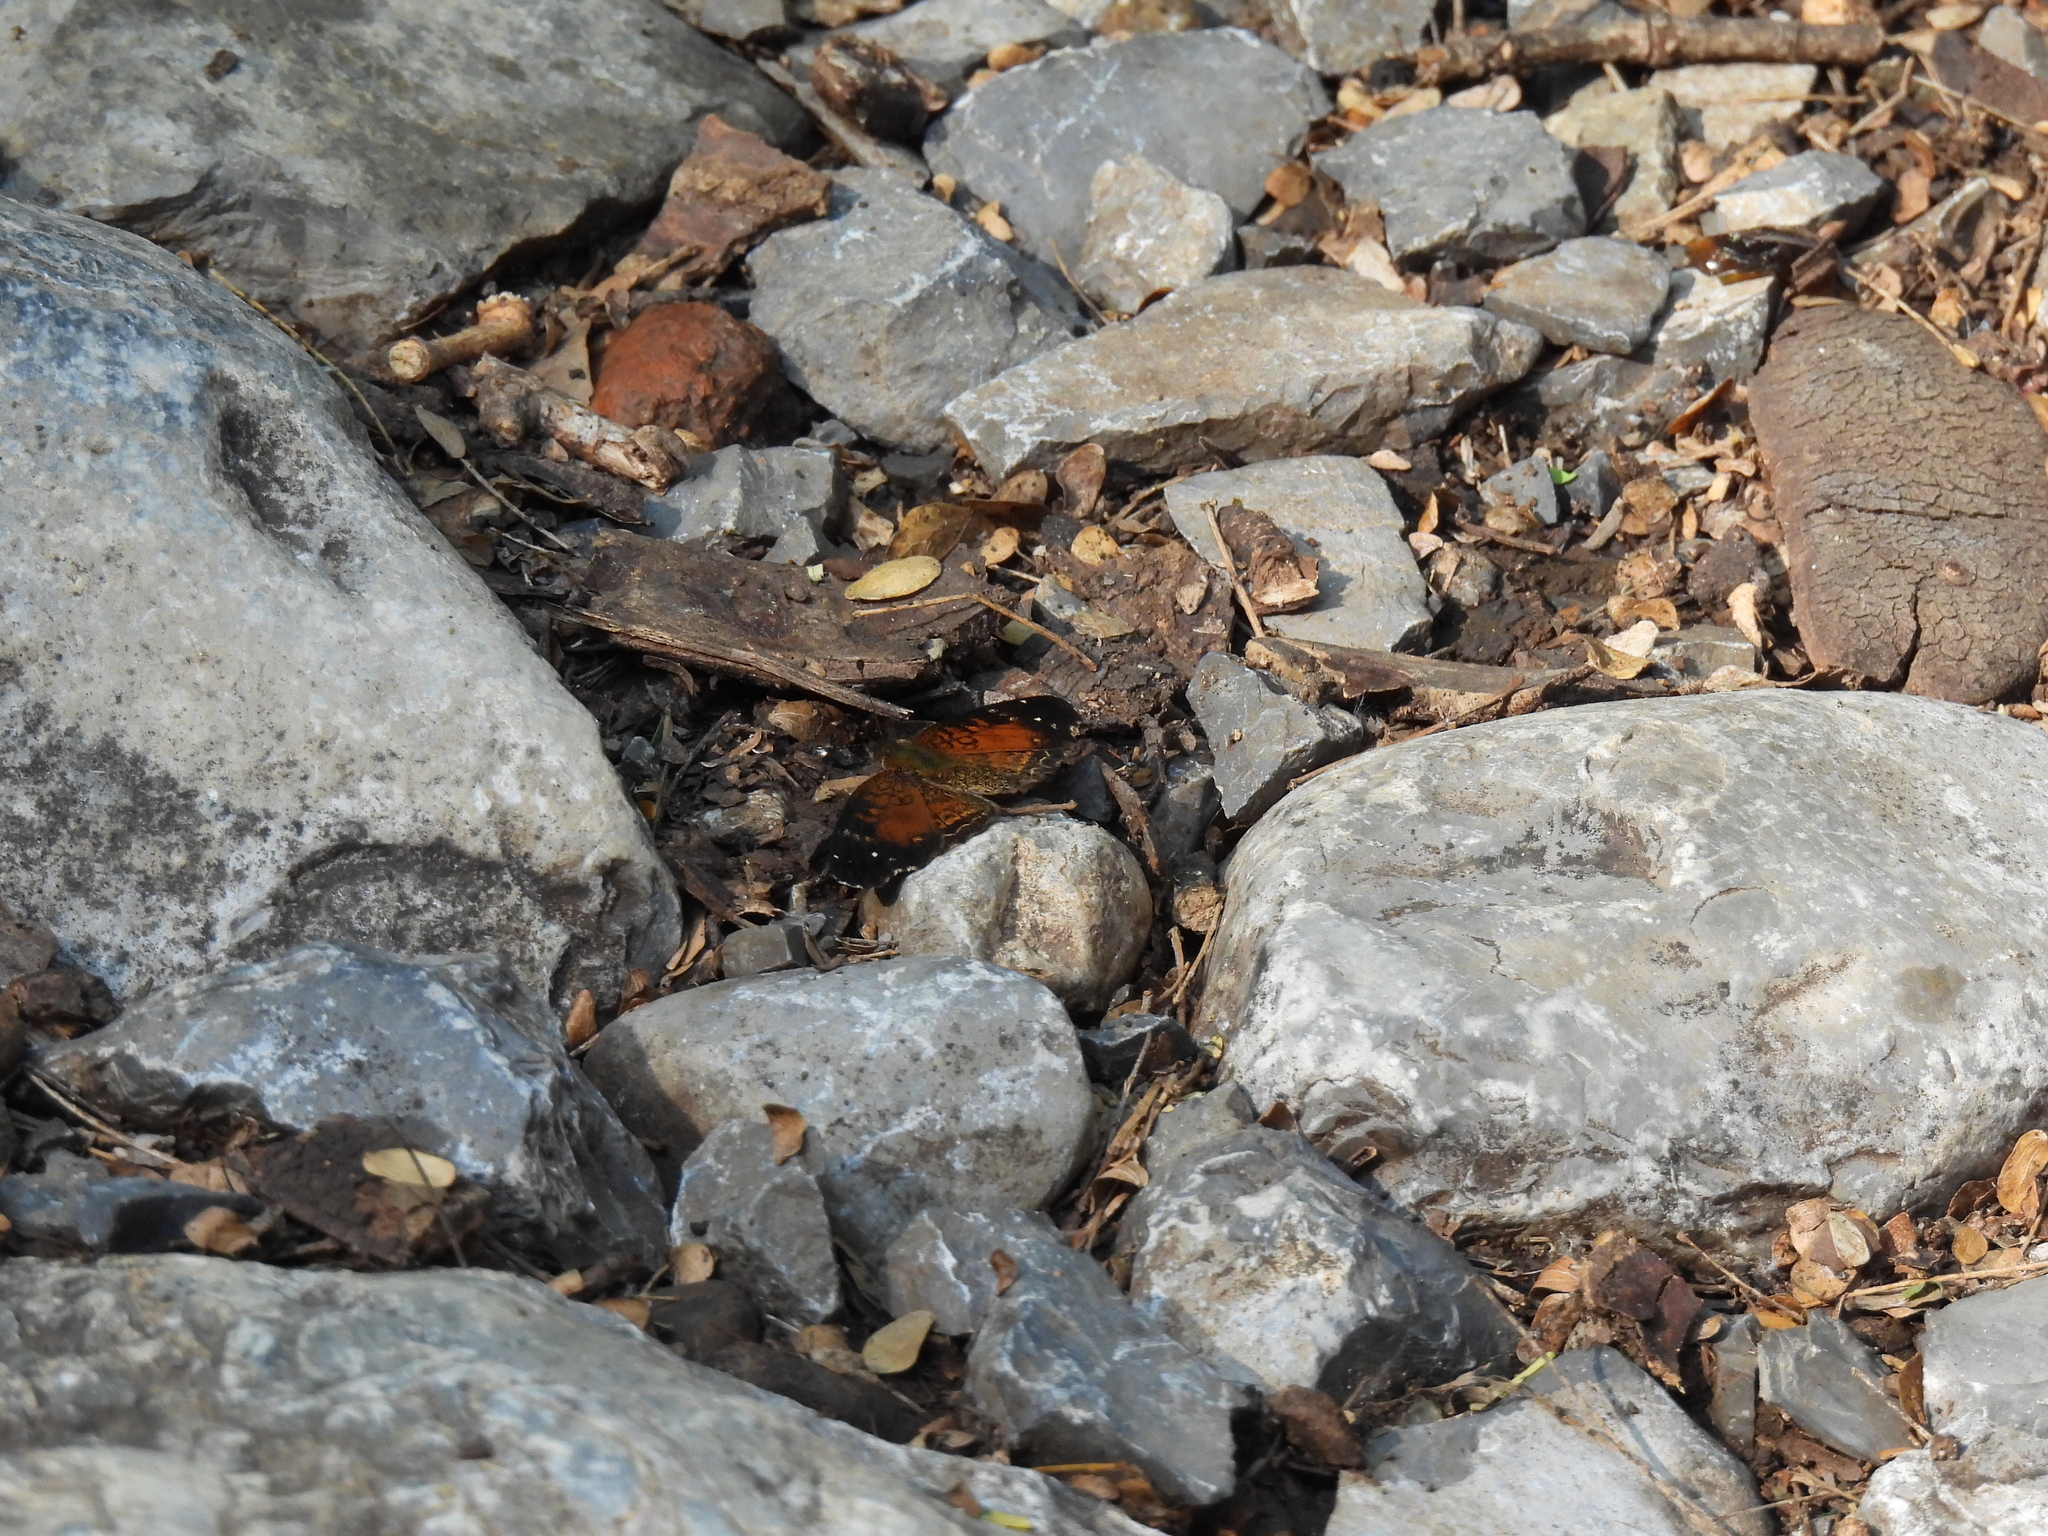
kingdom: Animalia
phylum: Arthropoda
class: Insecta
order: Lepidoptera
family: Nymphalidae
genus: Anthanassa
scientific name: Anthanassa argentea
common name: Chestnut crescent
